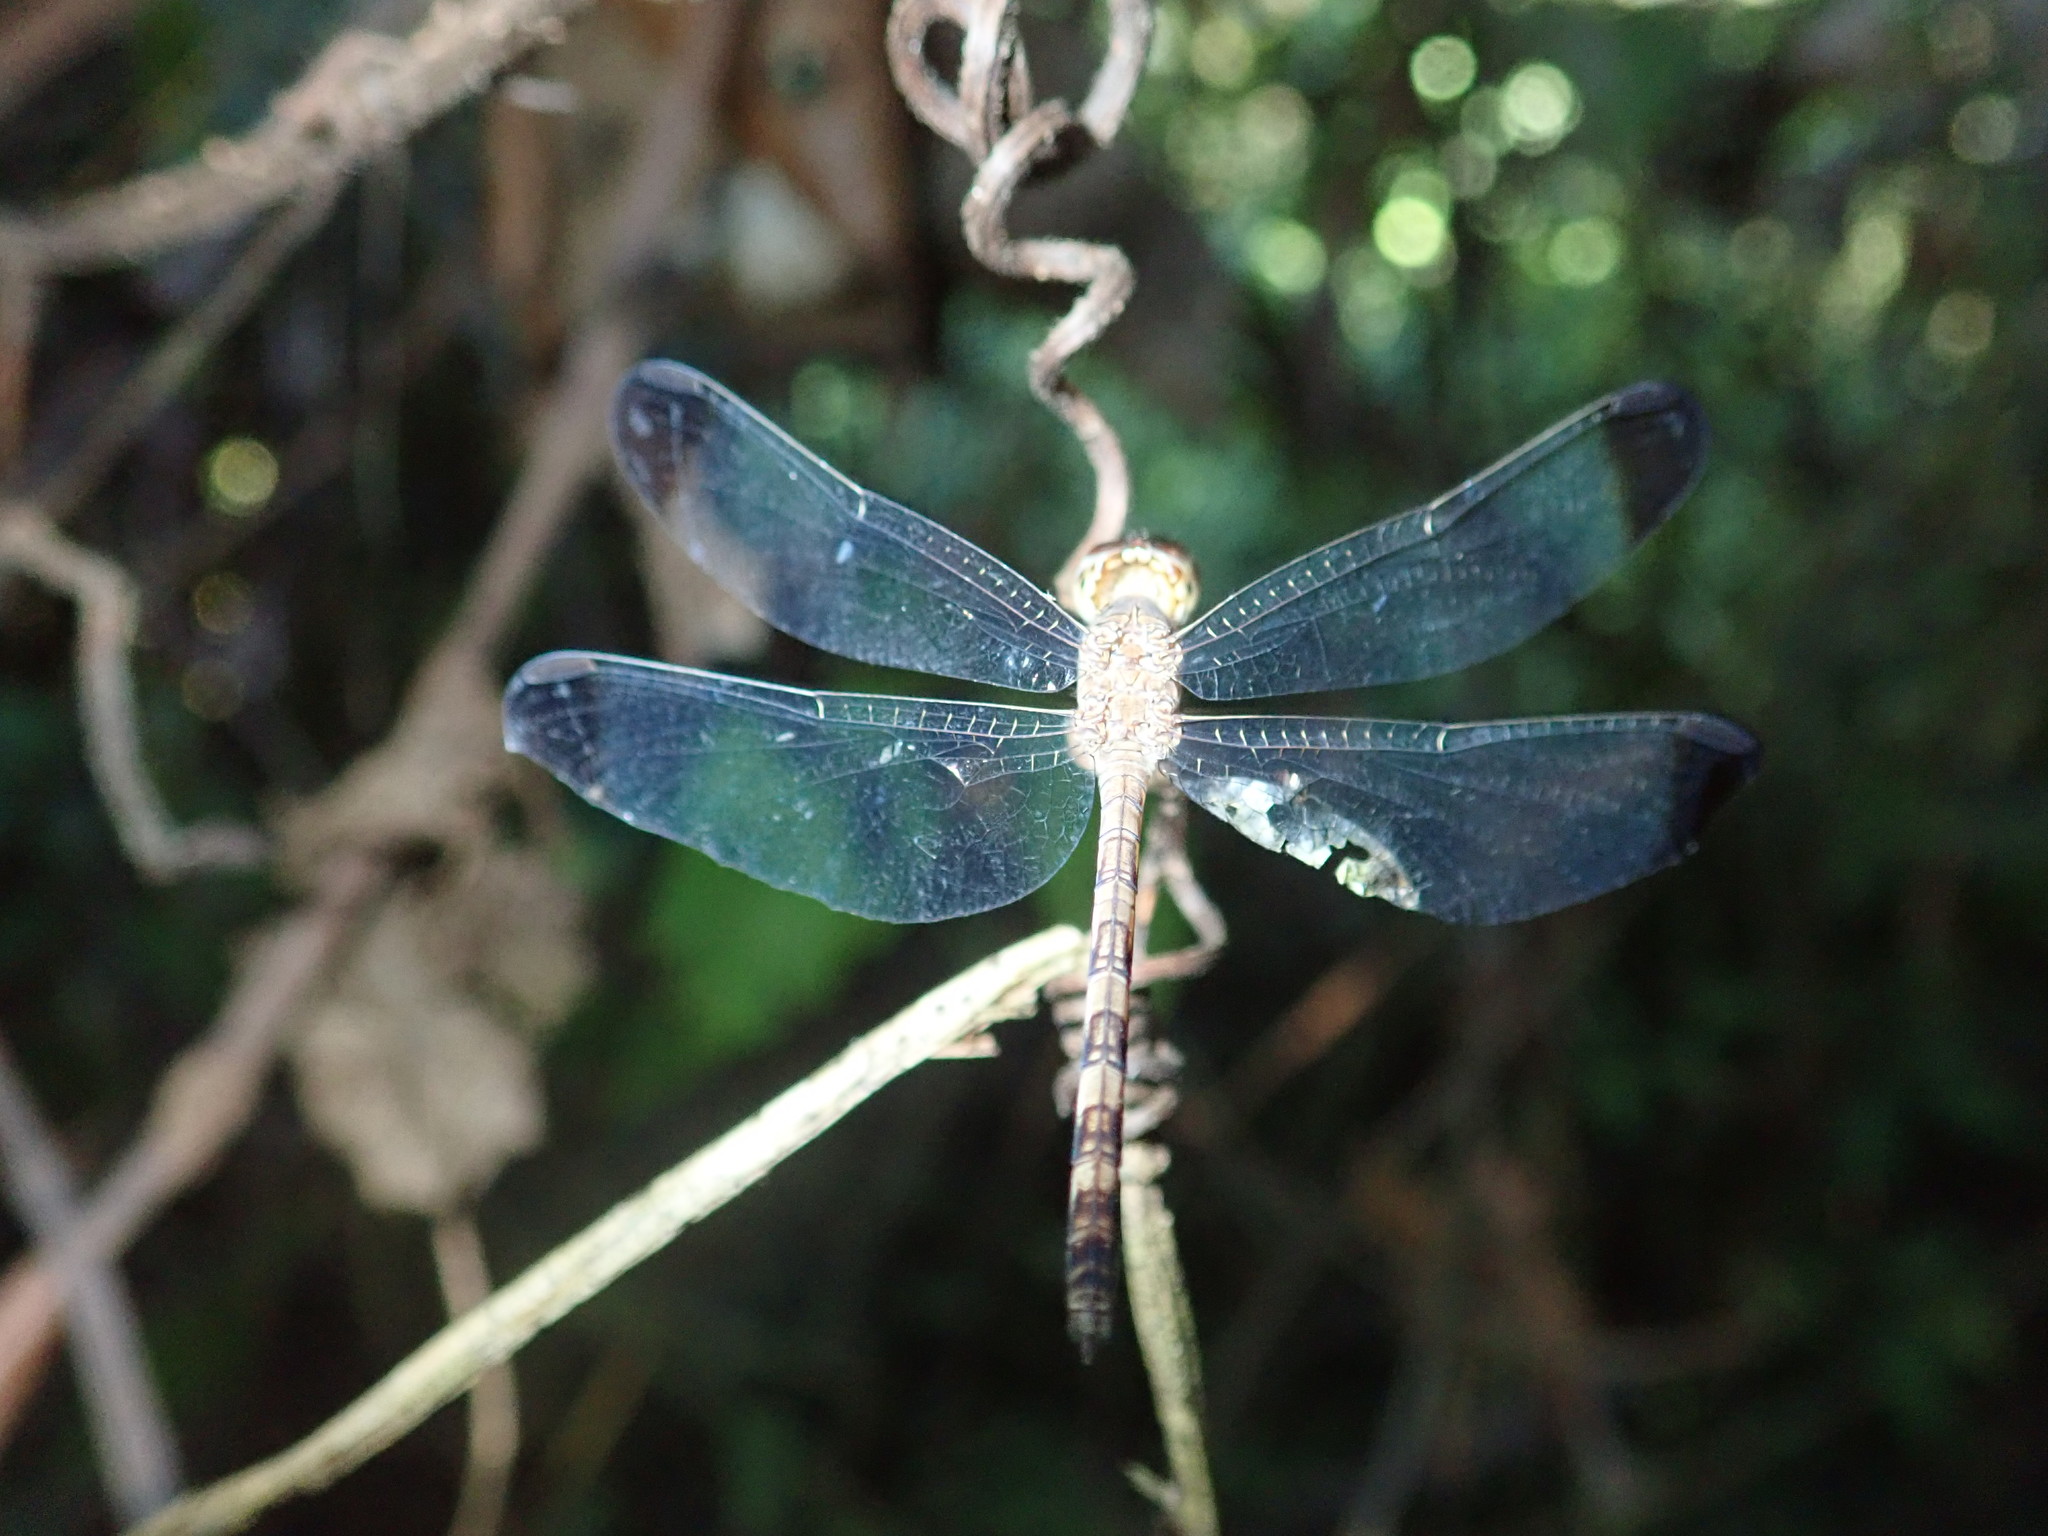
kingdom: Animalia
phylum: Arthropoda
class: Insecta
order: Odonata
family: Libellulidae
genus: Uracis
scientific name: Uracis imbuta
